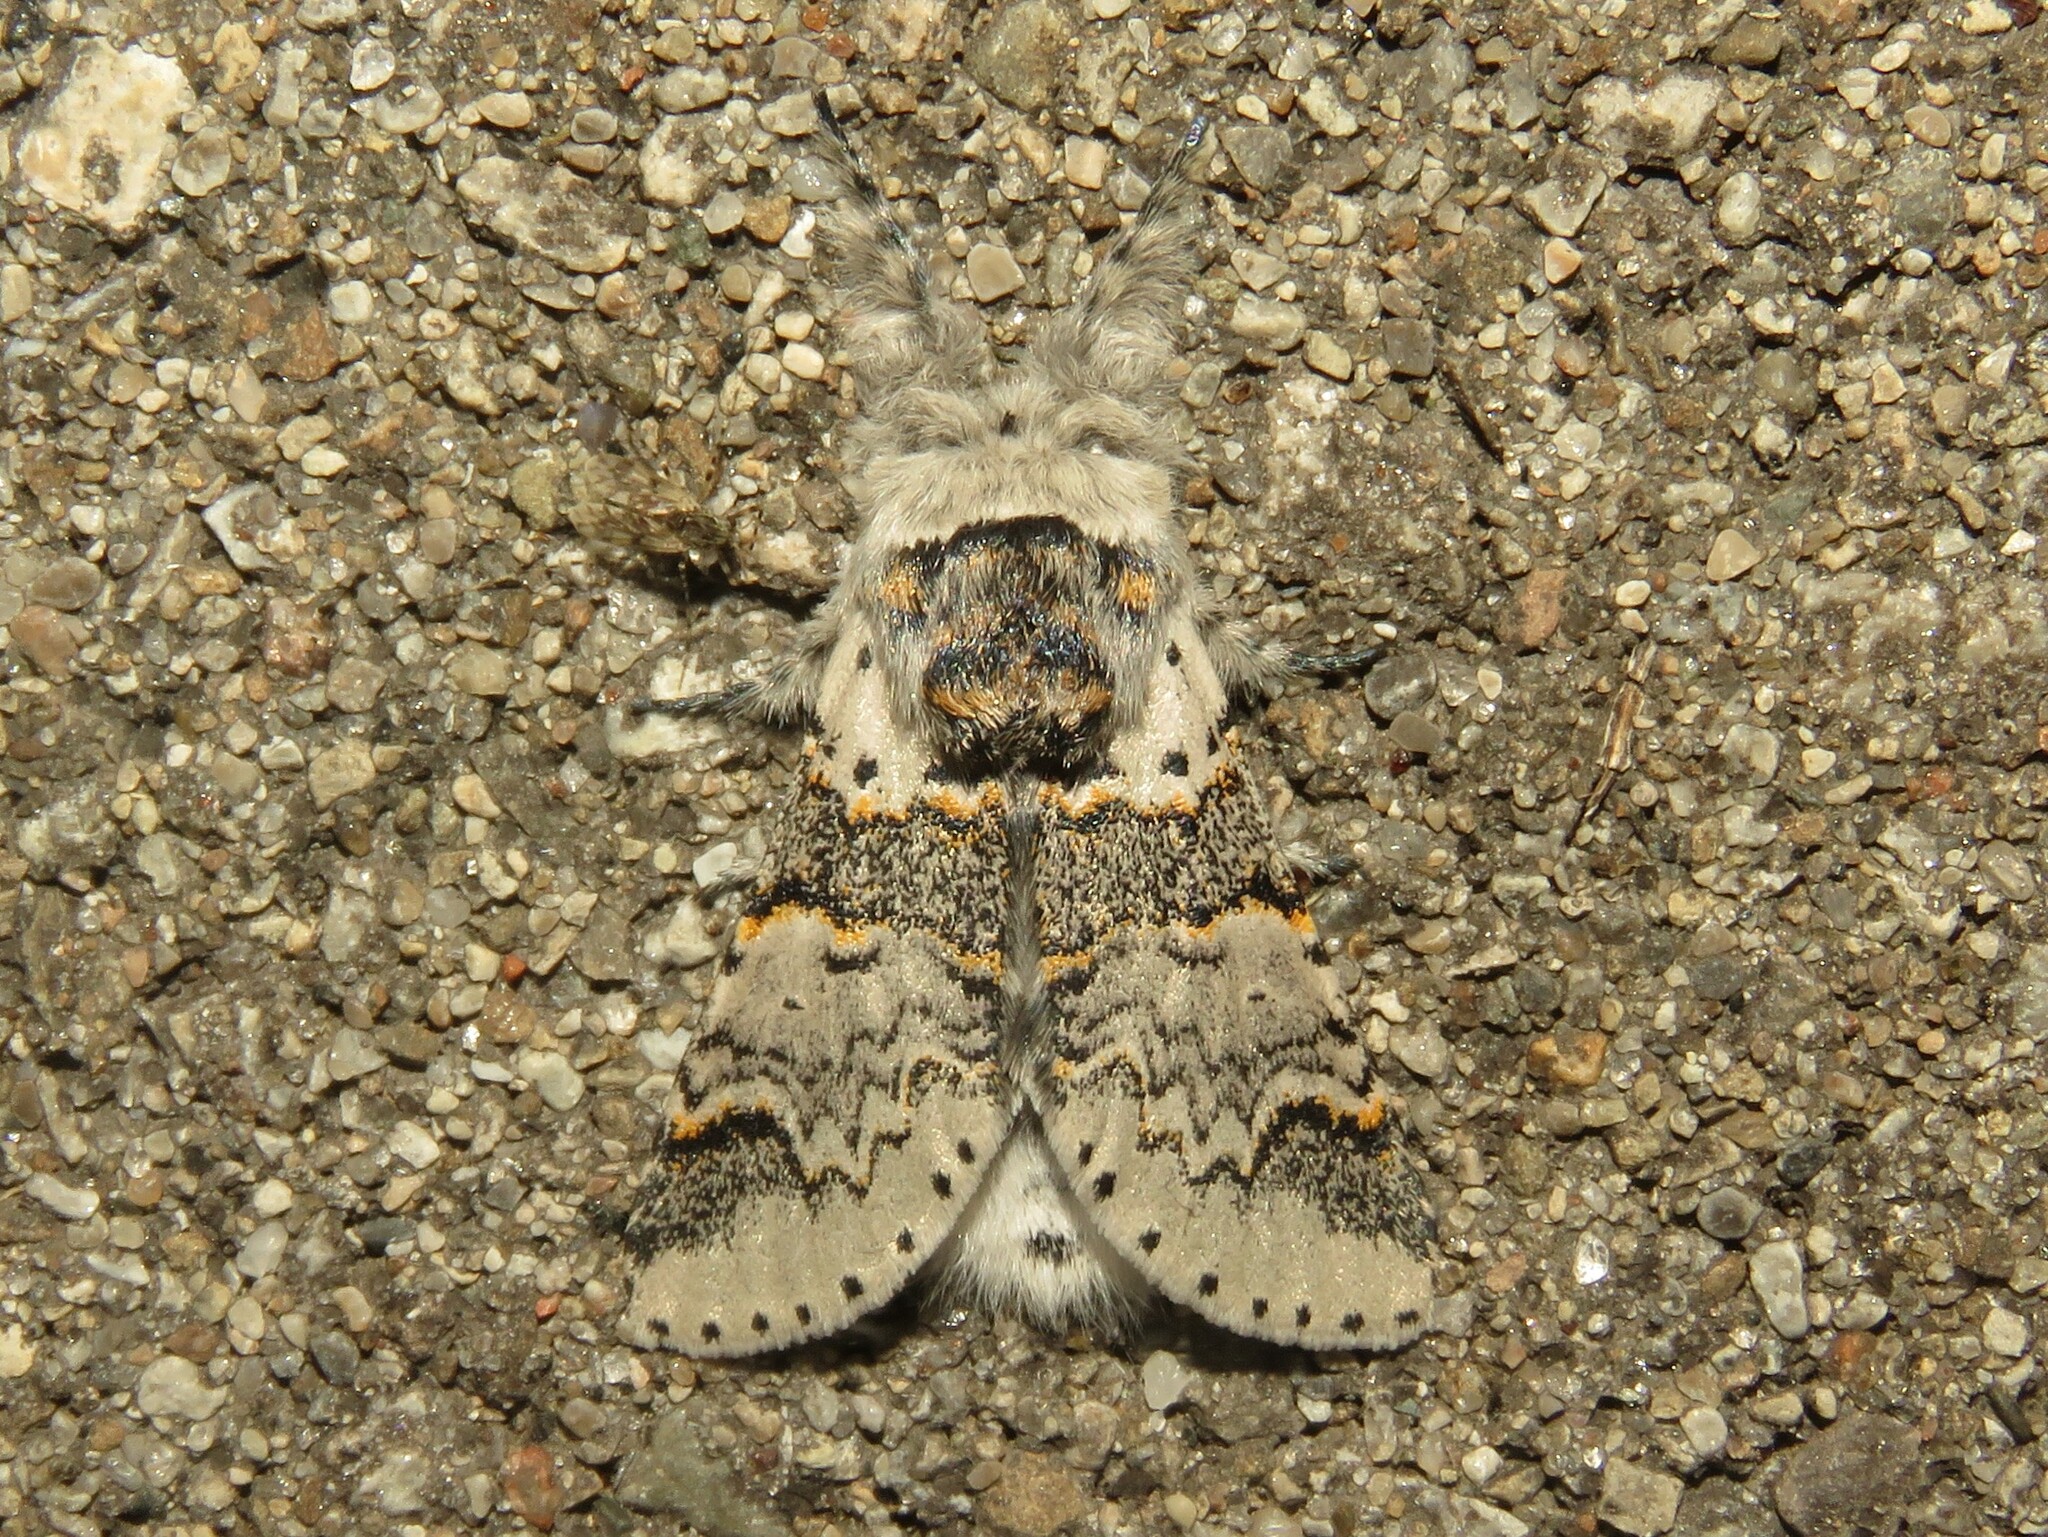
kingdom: Animalia
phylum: Arthropoda
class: Insecta
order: Lepidoptera
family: Notodontidae
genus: Furcula
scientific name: Furcula occidentalis
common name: Western furcula moth
